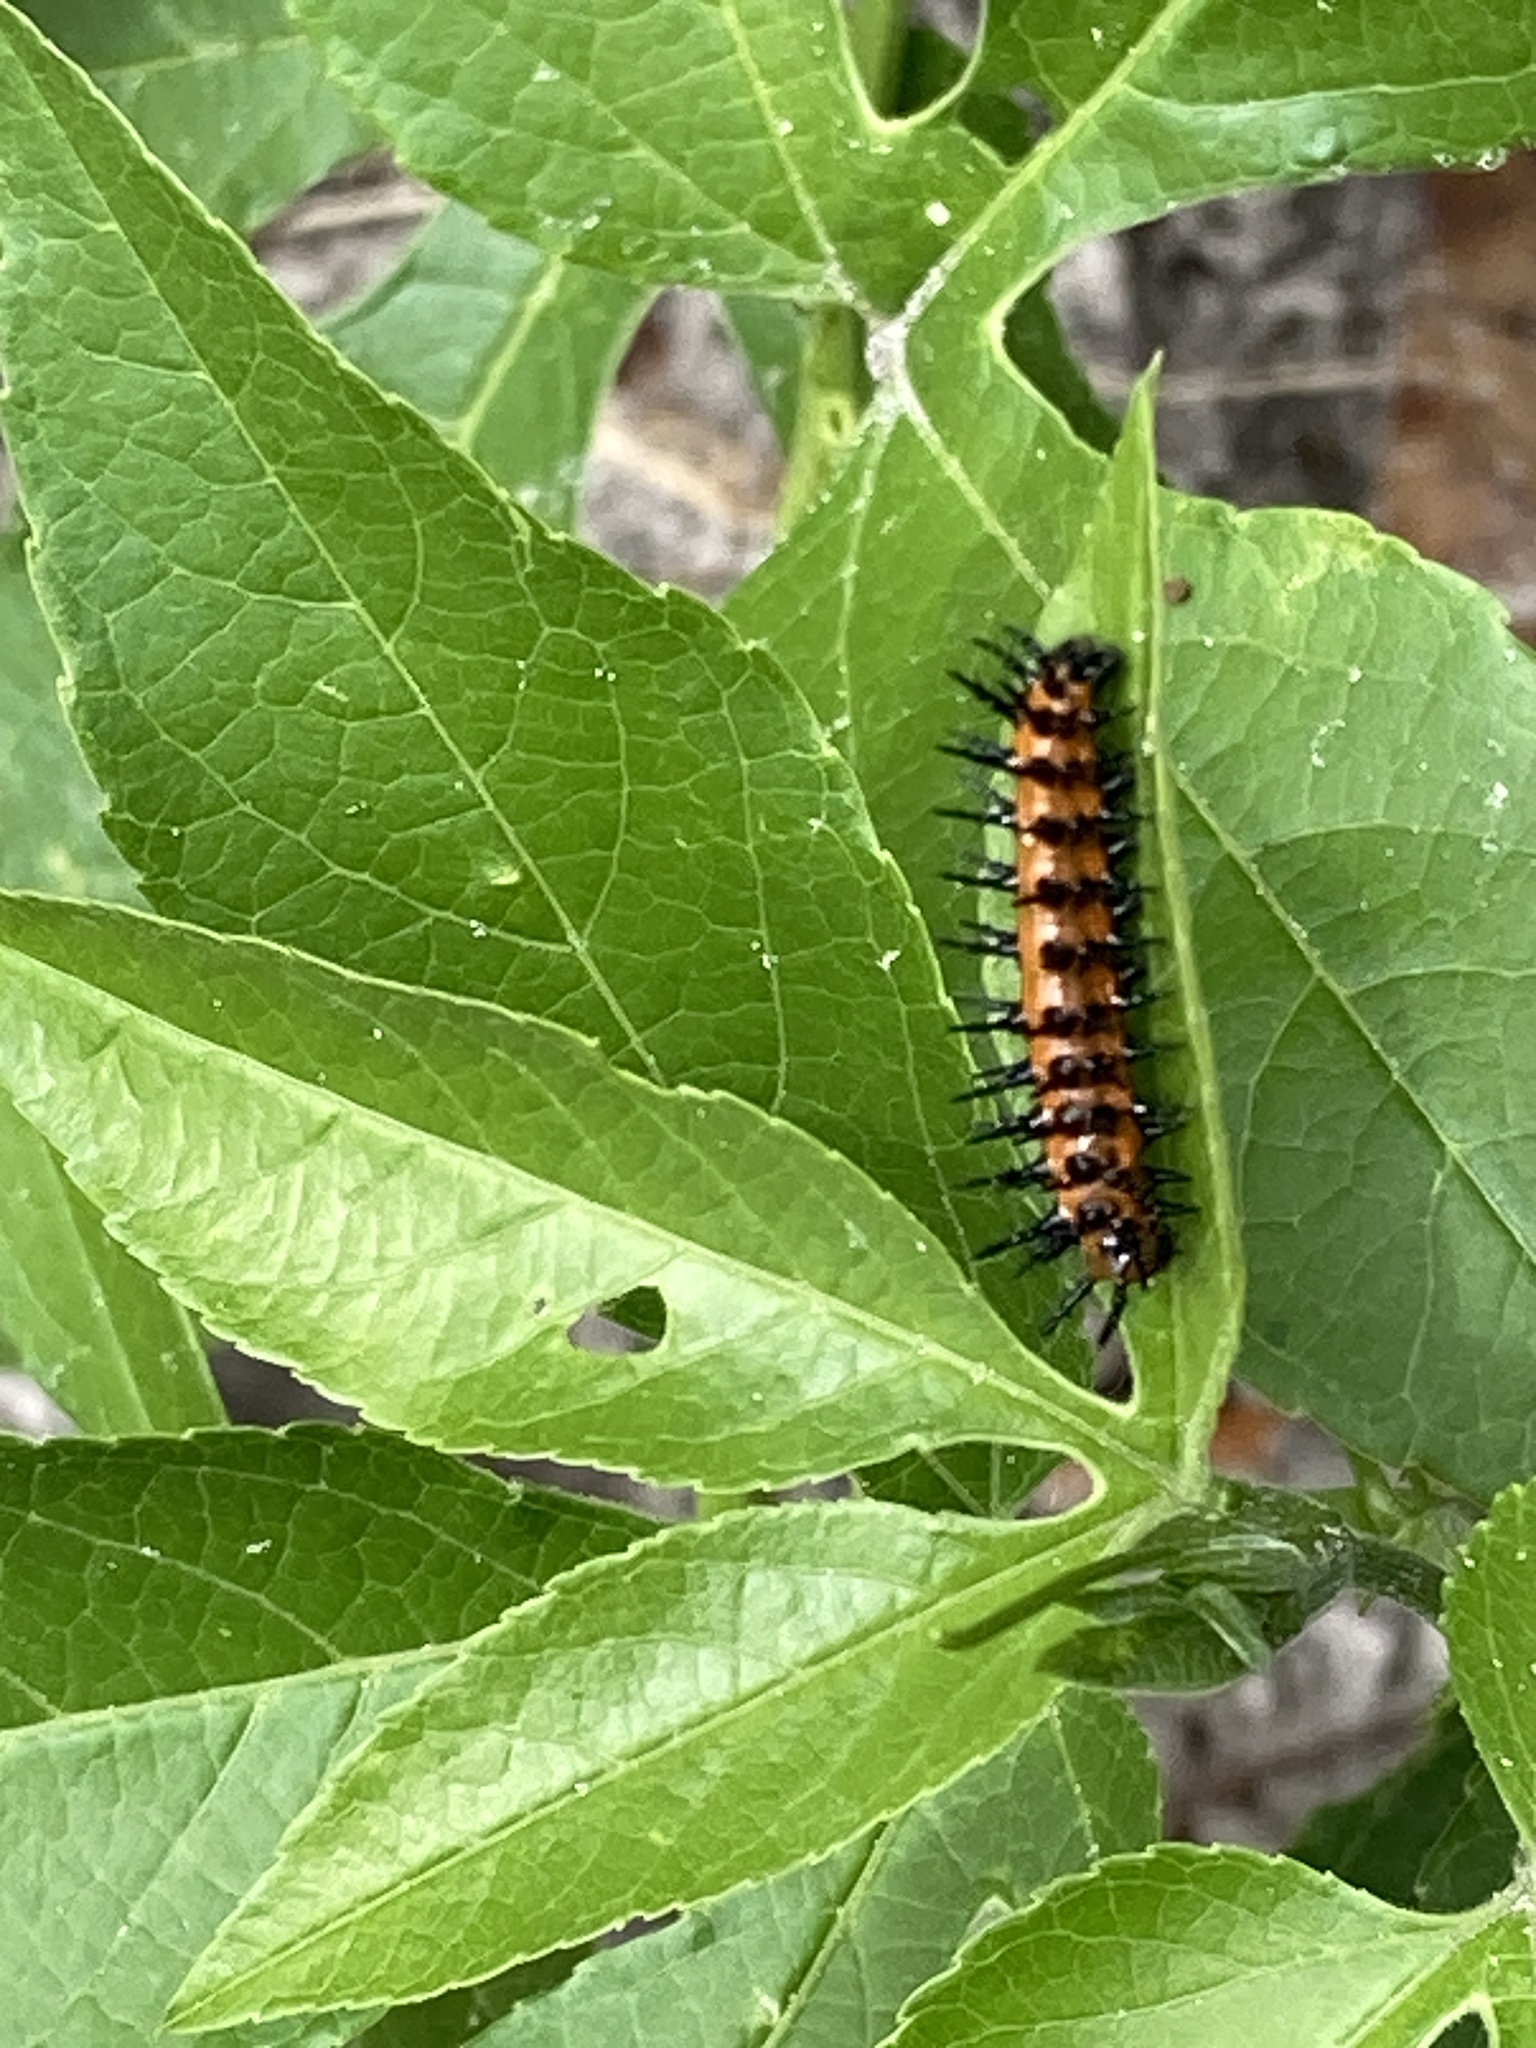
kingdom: Animalia
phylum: Arthropoda
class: Insecta
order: Lepidoptera
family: Nymphalidae
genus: Dione
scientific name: Dione vanillae
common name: Gulf fritillary
